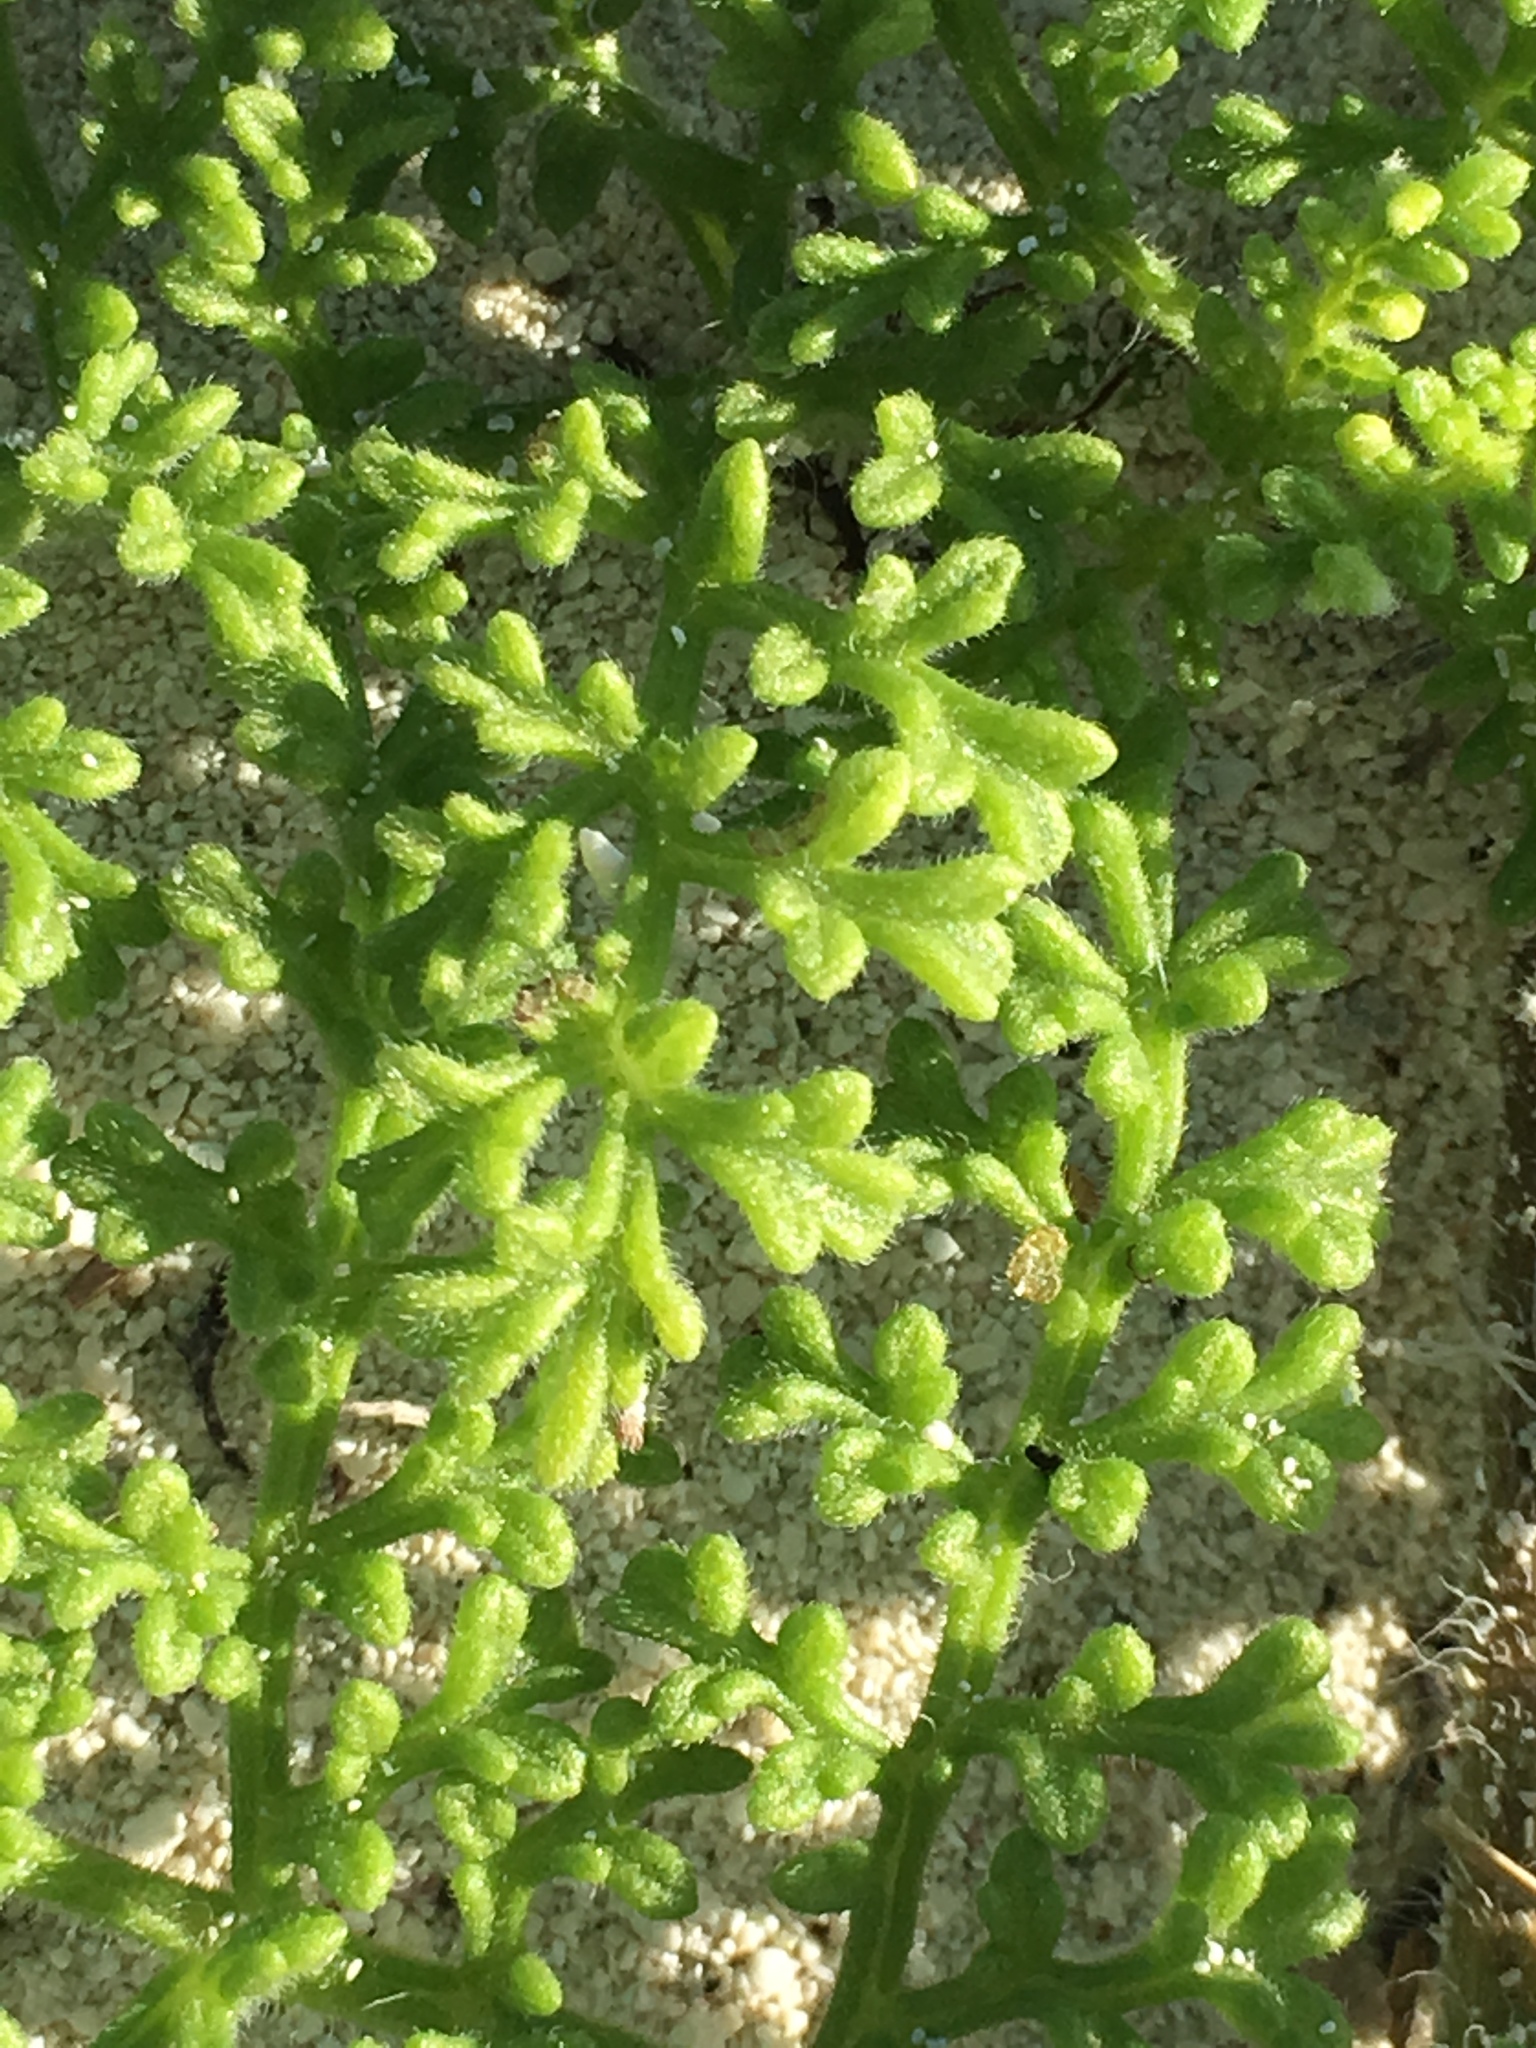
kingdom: Plantae
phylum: Tracheophyta
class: Magnoliopsida
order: Asterales
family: Asteraceae
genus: Ambrosia
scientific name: Ambrosia hispida
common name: Coastal ragweed
